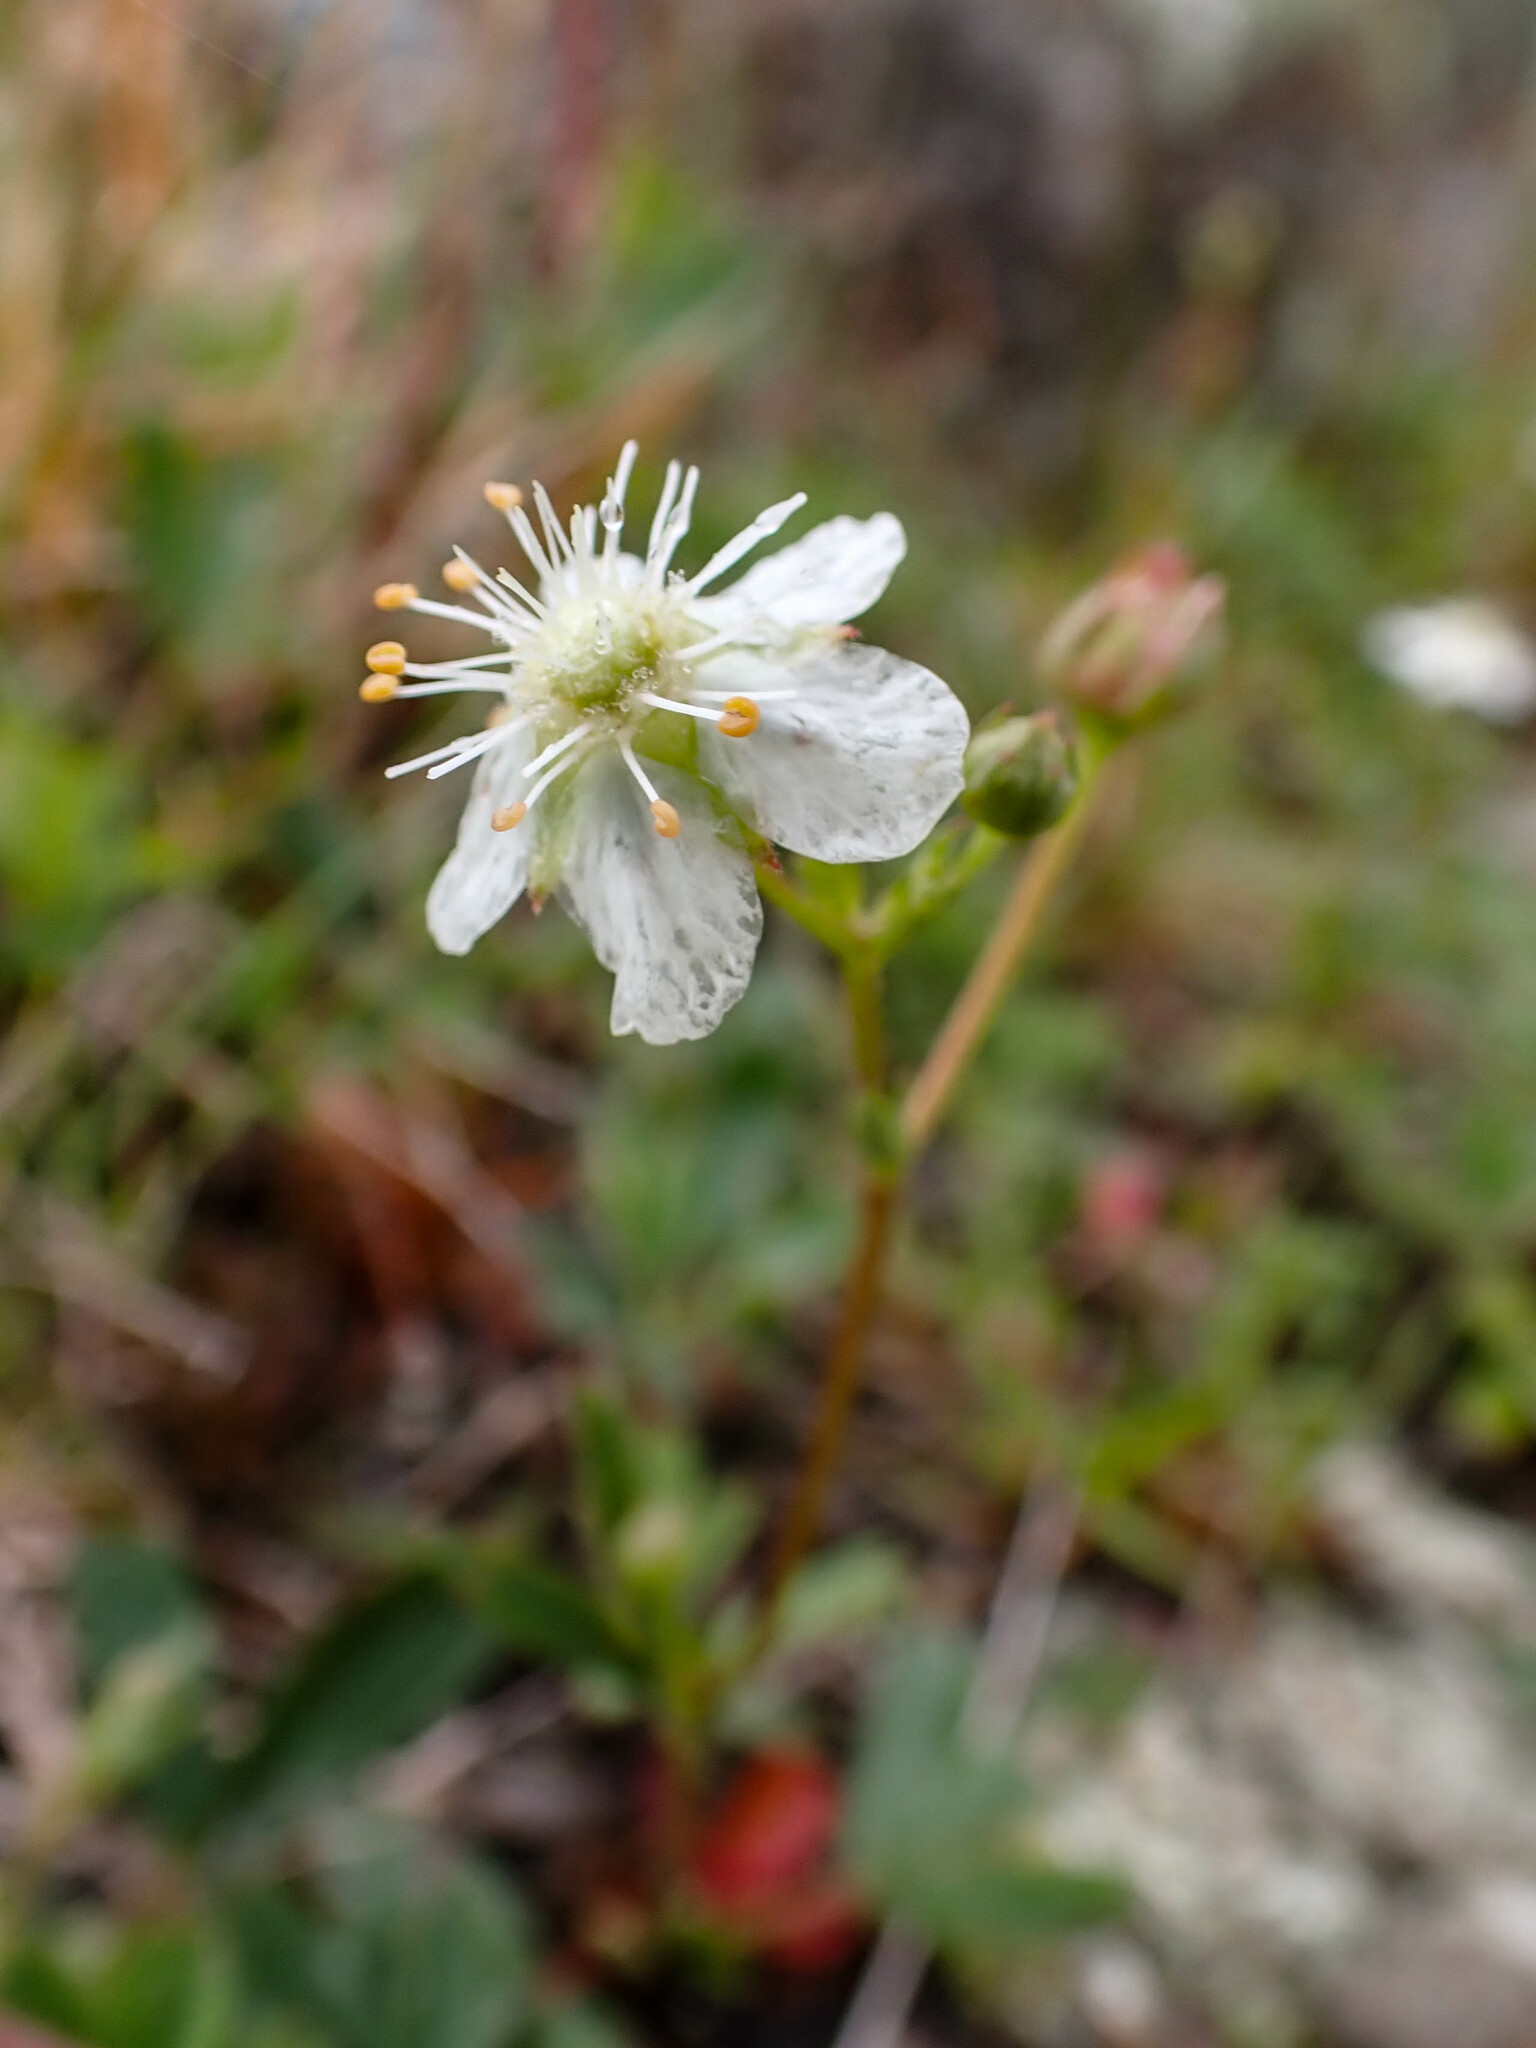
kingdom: Plantae
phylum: Tracheophyta
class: Magnoliopsida
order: Rosales
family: Rosaceae
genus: Sibbaldia
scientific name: Sibbaldia tridentata
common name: Three-toothed cinquefoil
